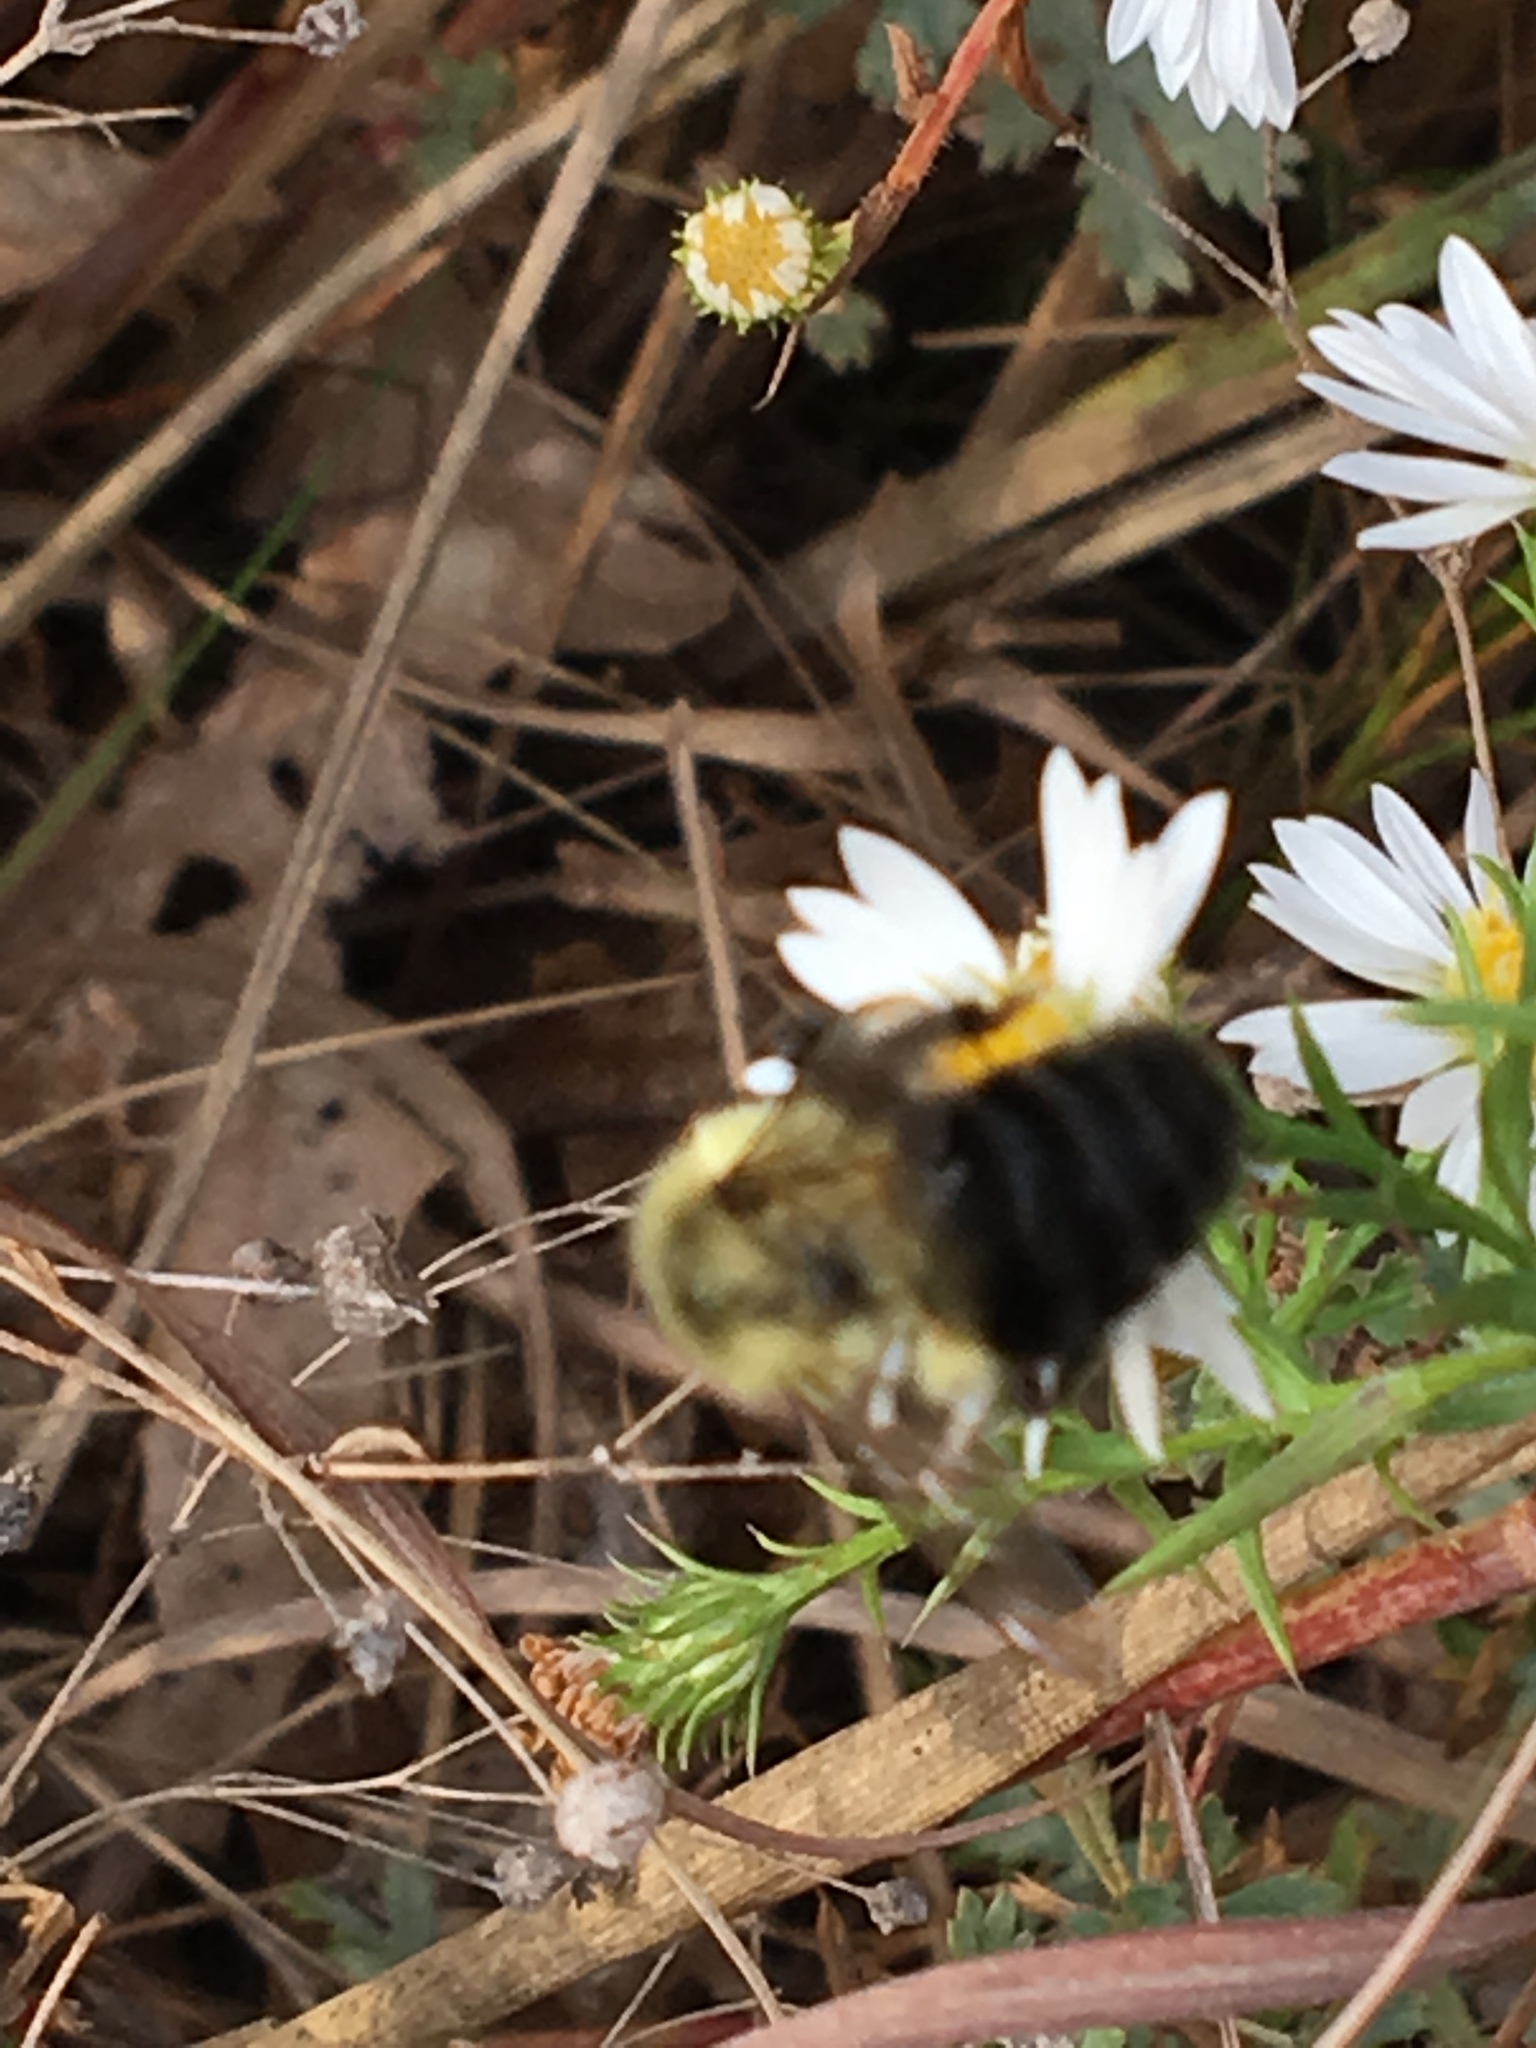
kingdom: Animalia
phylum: Arthropoda
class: Insecta
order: Hymenoptera
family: Apidae
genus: Bombus
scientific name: Bombus impatiens
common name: Common eastern bumble bee
